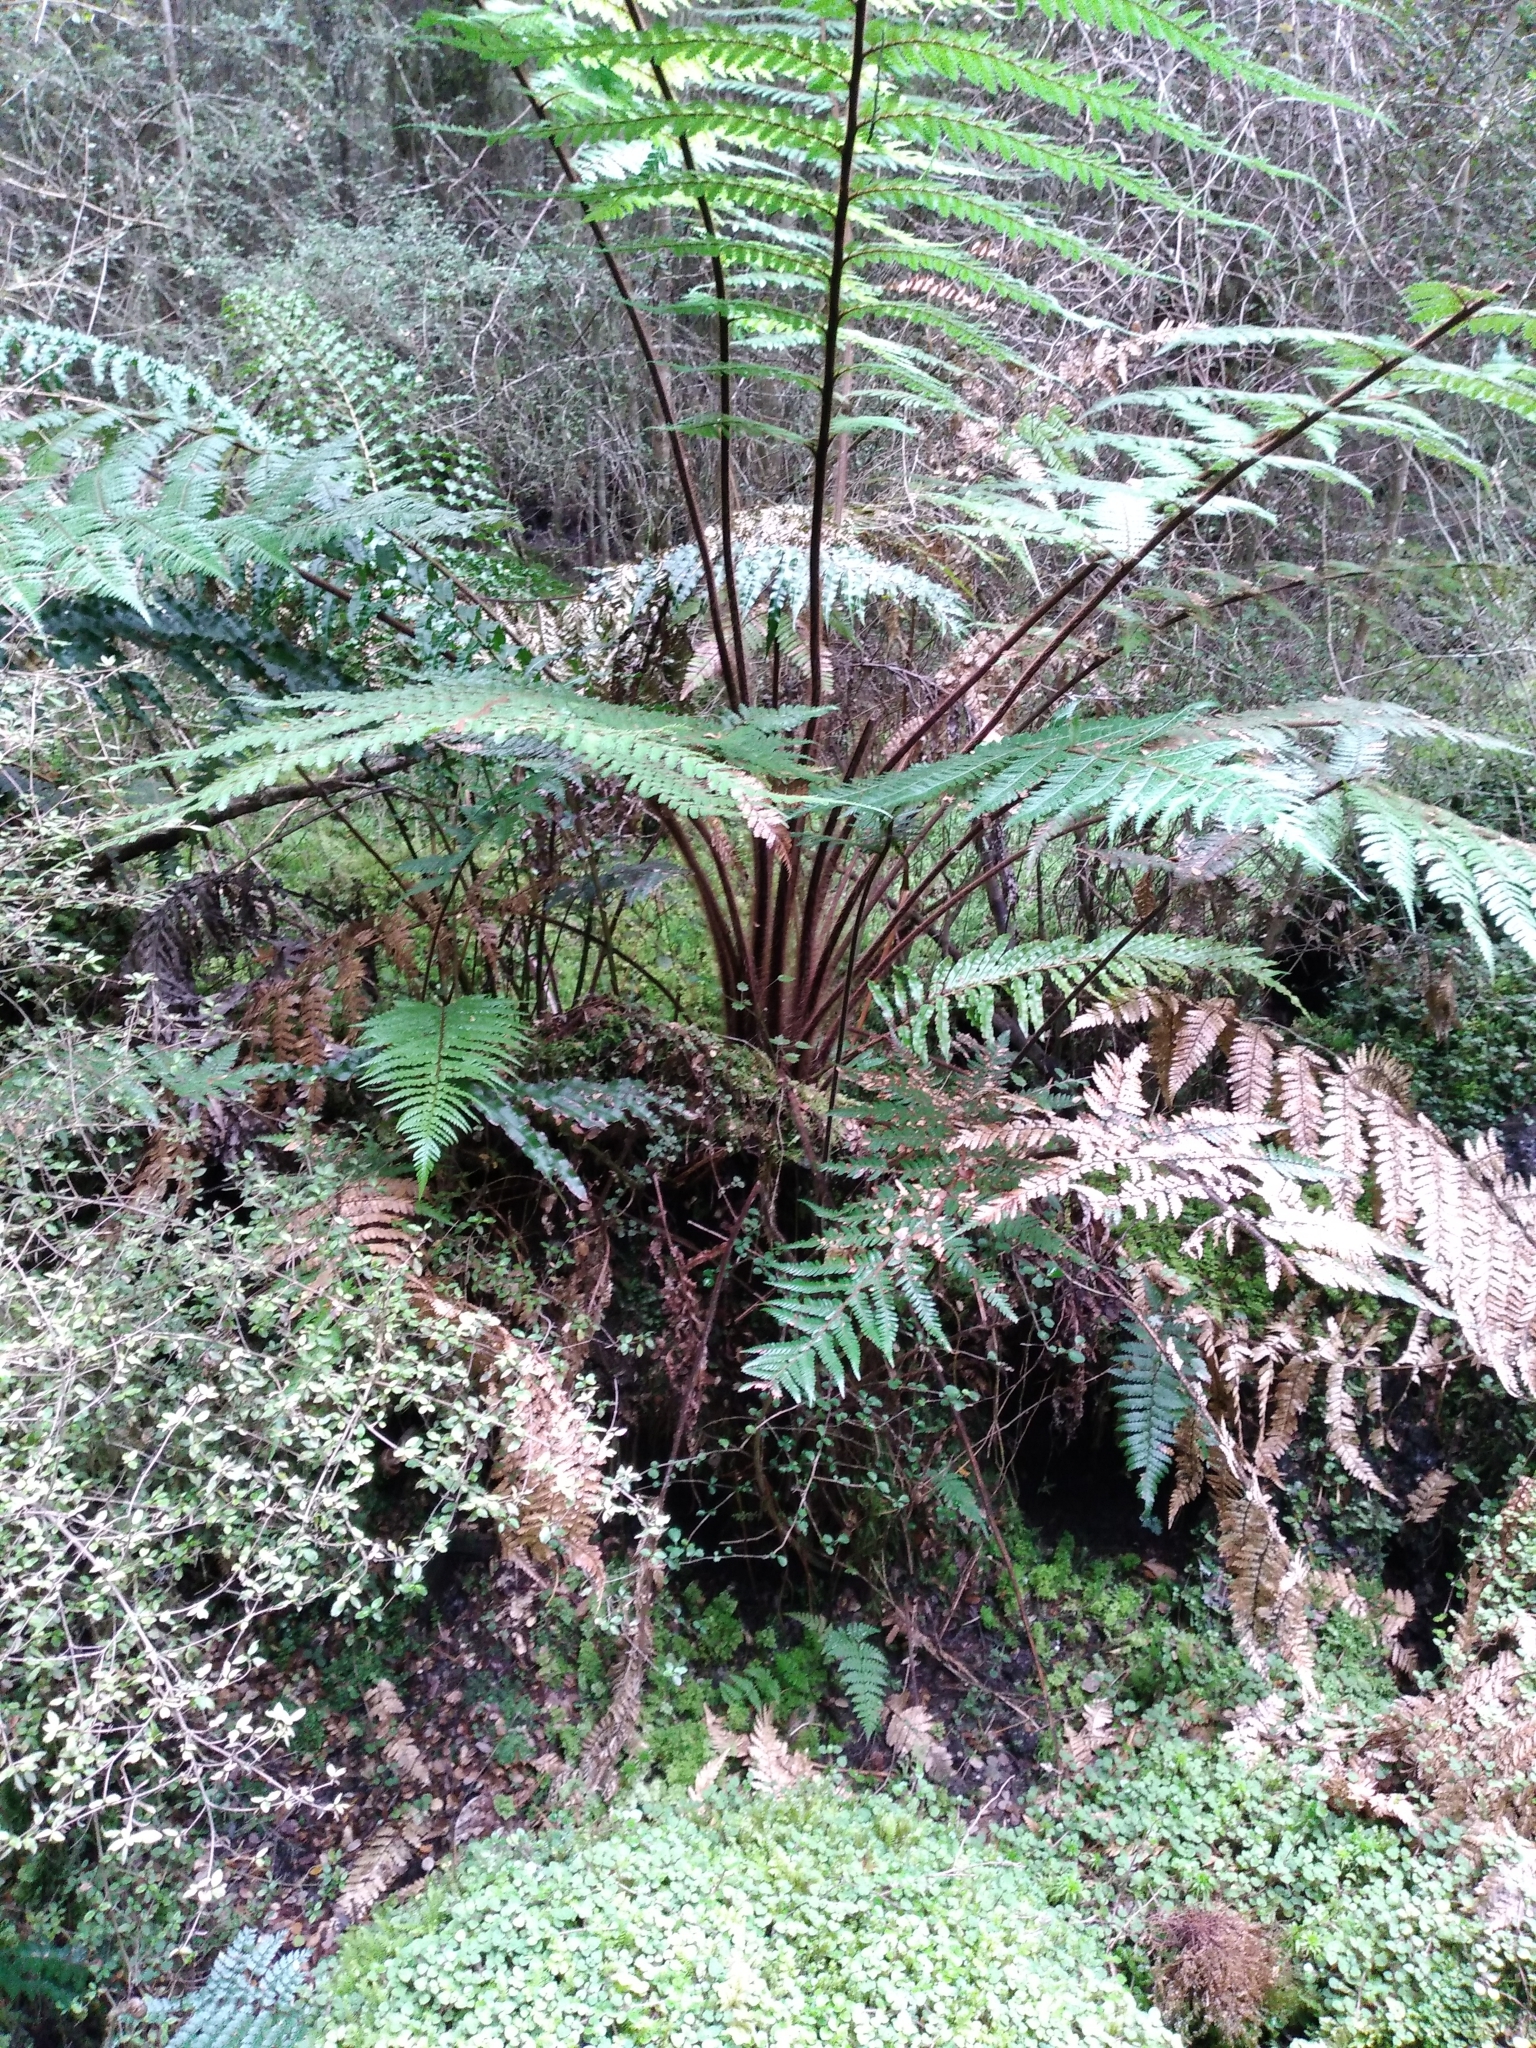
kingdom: Plantae
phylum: Tracheophyta
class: Polypodiopsida
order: Cyatheales
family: Dicksoniaceae
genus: Dicksonia
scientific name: Dicksonia squarrosa
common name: Hard treefern
